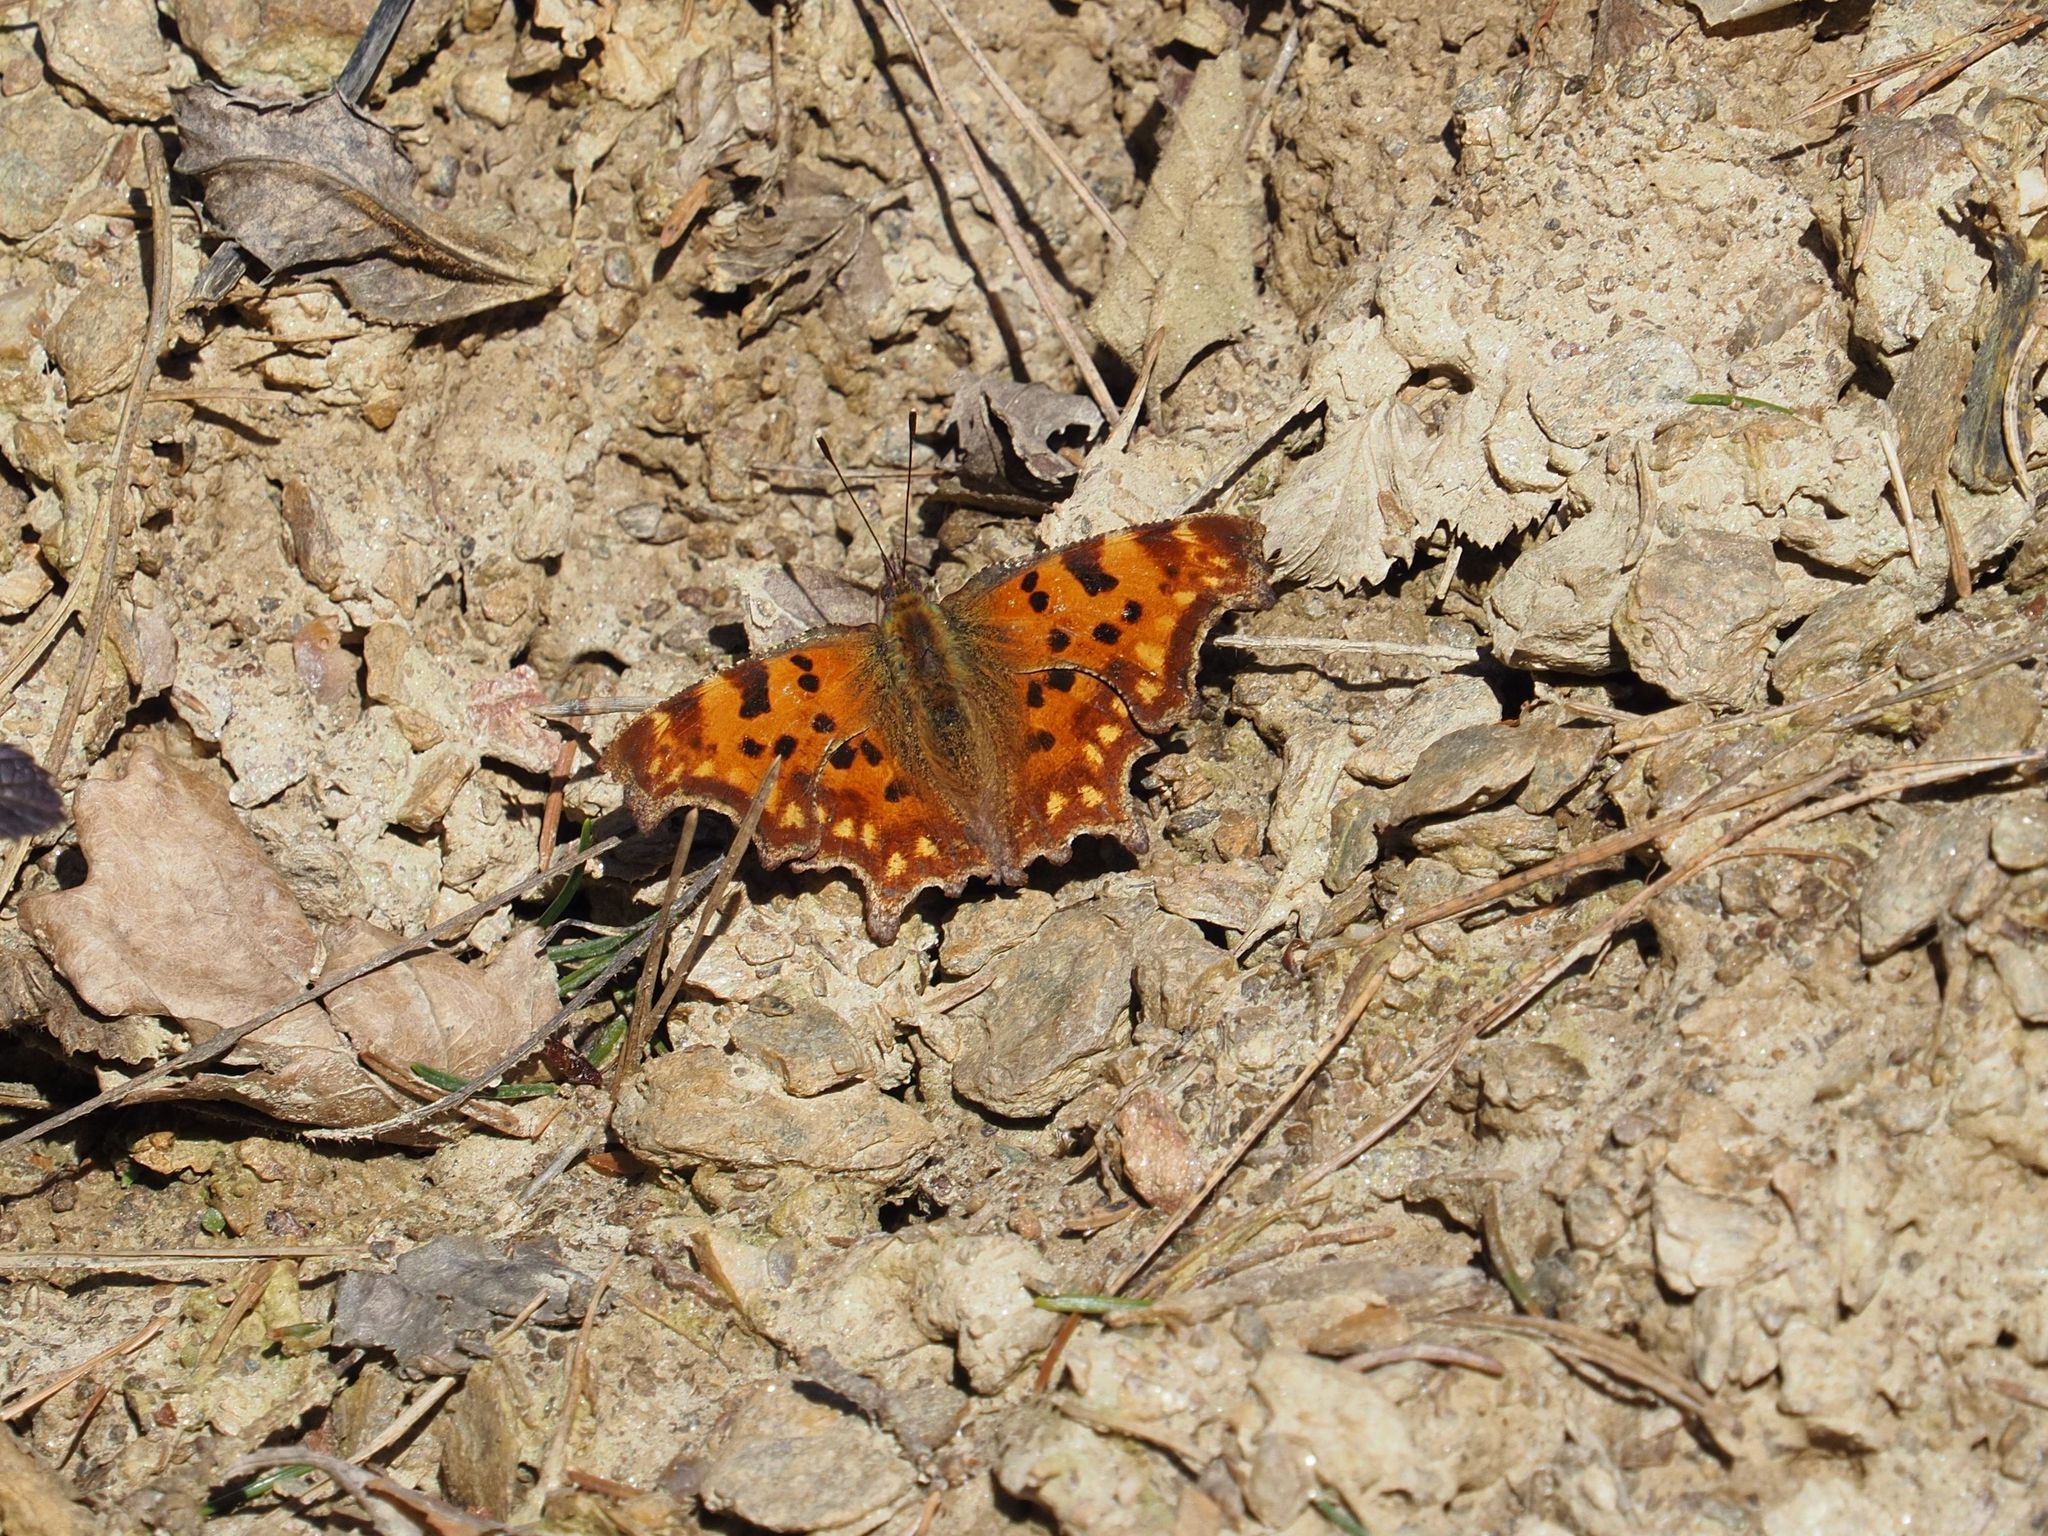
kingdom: Animalia
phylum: Arthropoda
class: Insecta
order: Lepidoptera
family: Nymphalidae
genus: Polygonia
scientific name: Polygonia c-album
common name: Comma
